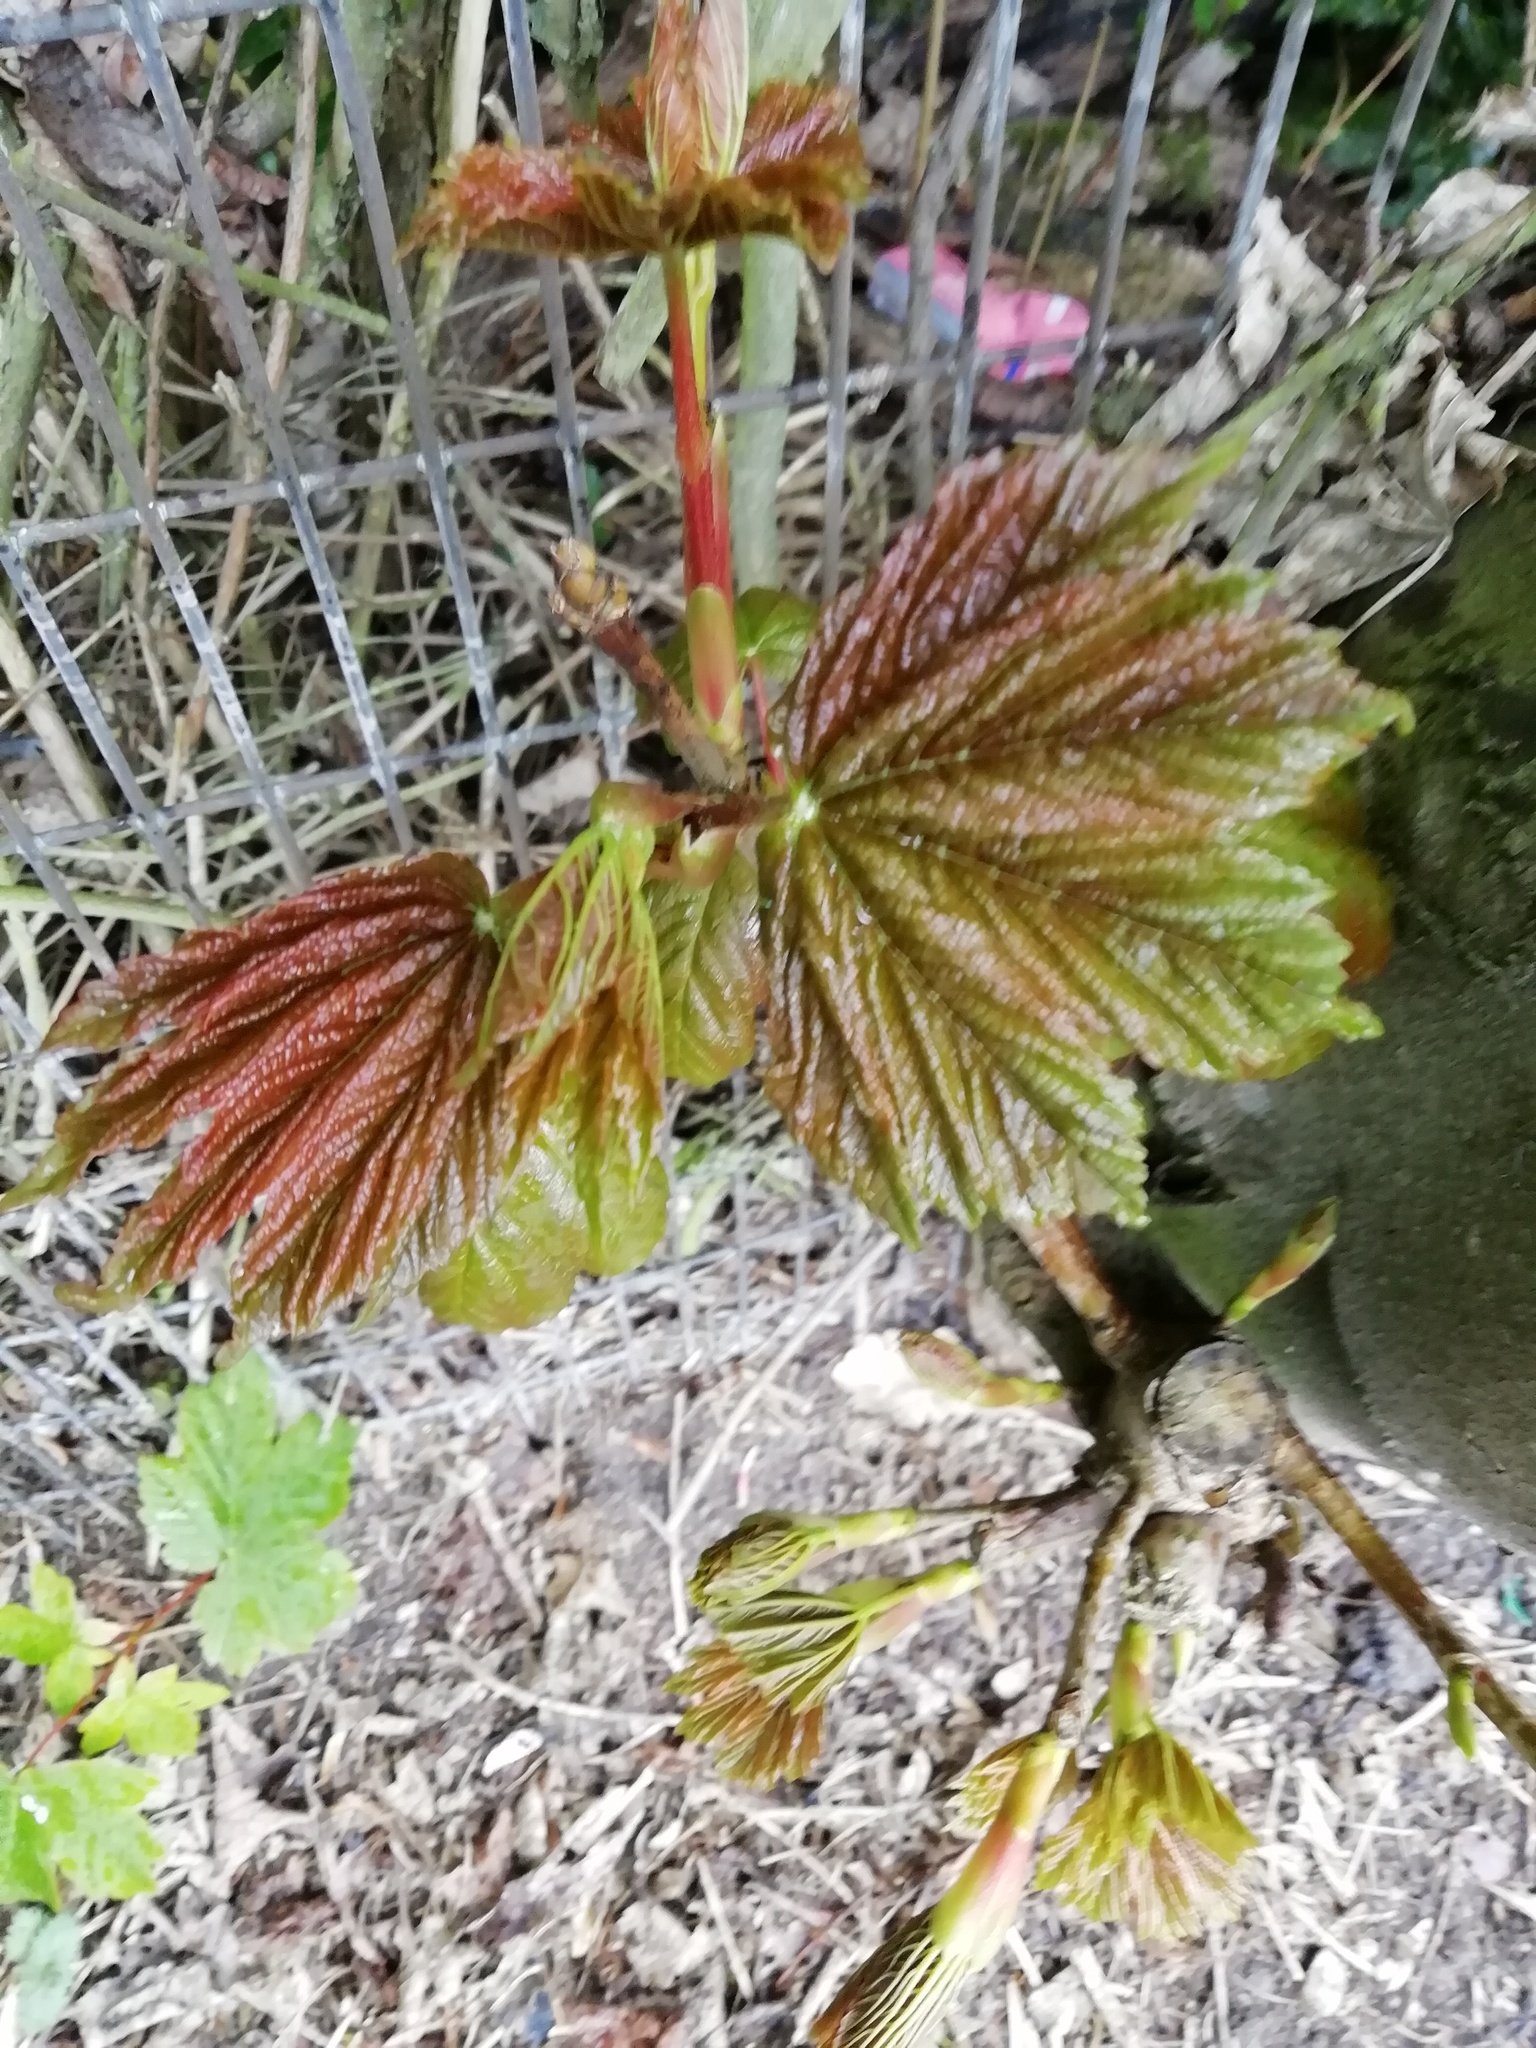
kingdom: Plantae
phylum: Tracheophyta
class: Magnoliopsida
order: Sapindales
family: Sapindaceae
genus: Acer
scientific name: Acer pseudoplatanus
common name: Sycamore
